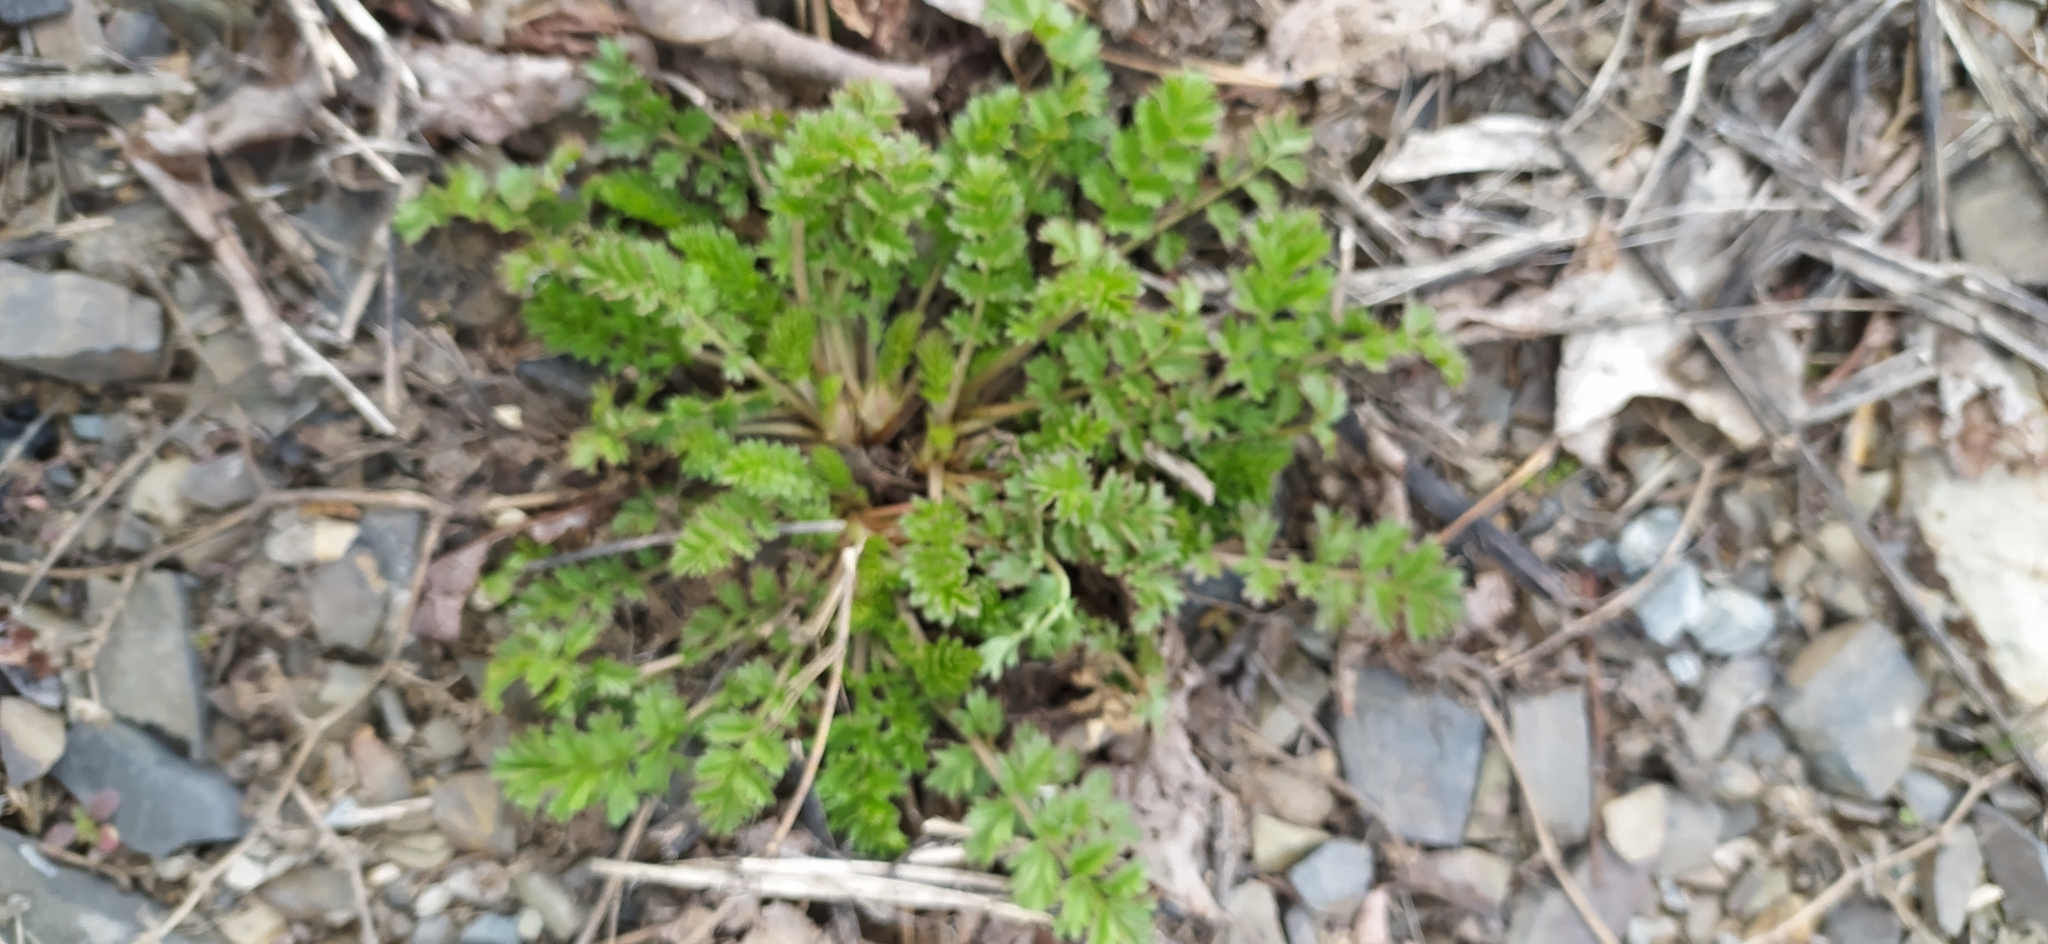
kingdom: Plantae
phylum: Tracheophyta
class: Magnoliopsida
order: Rosales
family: Rosaceae
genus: Potentilla
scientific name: Potentilla supina
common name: Prostrate cinquefoil
